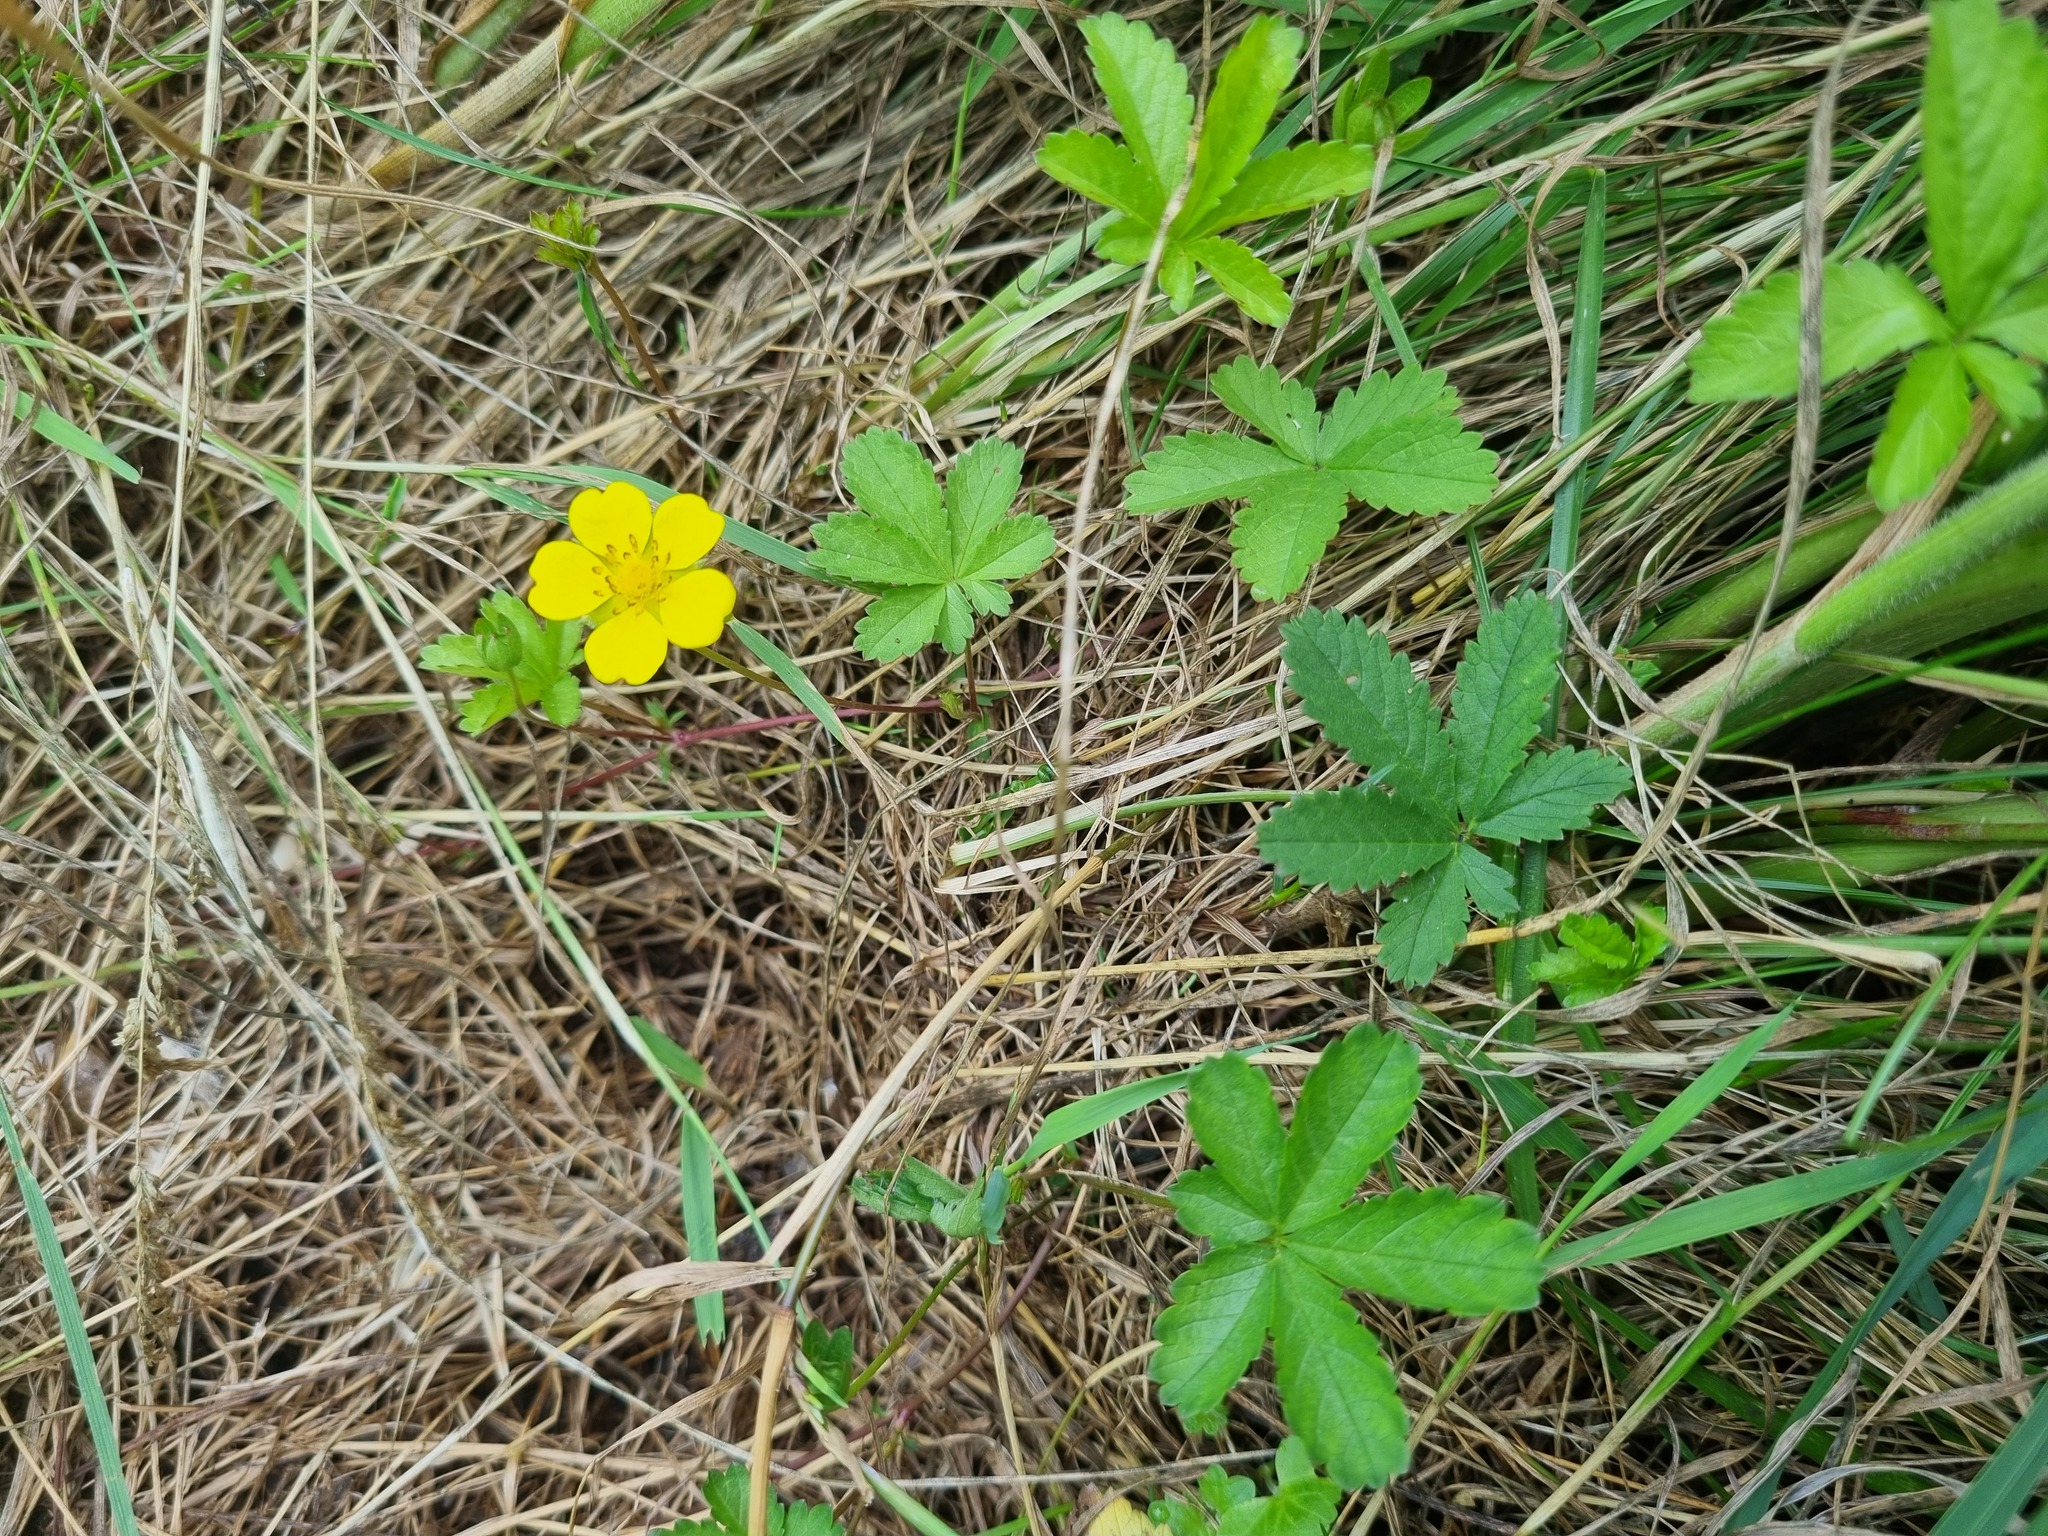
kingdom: Plantae
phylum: Tracheophyta
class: Magnoliopsida
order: Rosales
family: Rosaceae
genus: Potentilla
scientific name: Potentilla reptans
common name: Creeping cinquefoil
